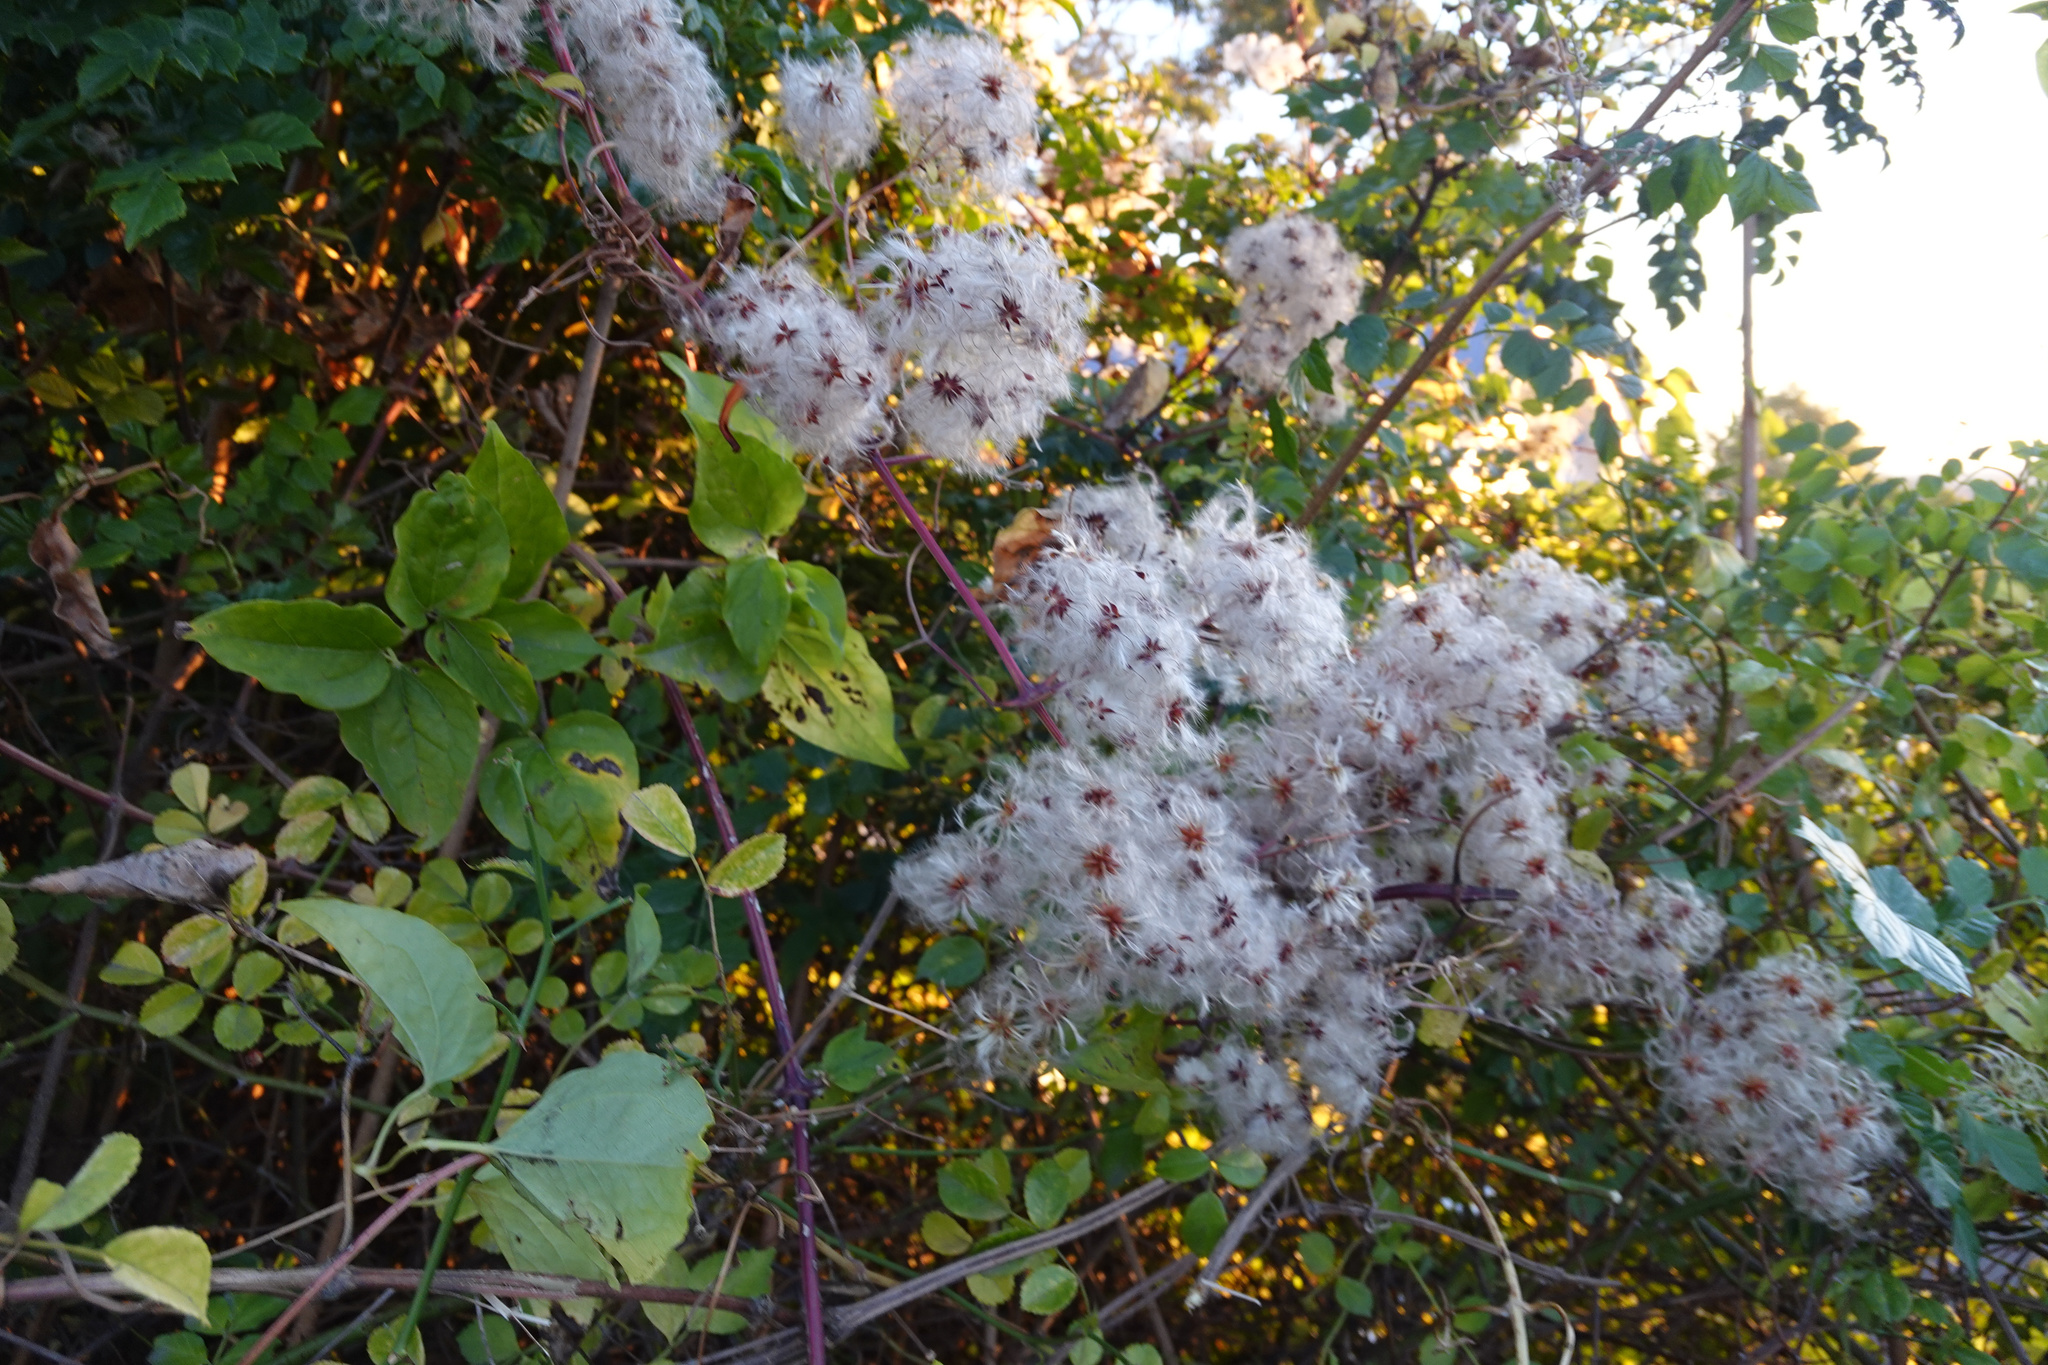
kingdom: Plantae
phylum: Tracheophyta
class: Magnoliopsida
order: Ranunculales
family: Ranunculaceae
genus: Clematis
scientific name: Clematis vitalba
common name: Evergreen clematis
